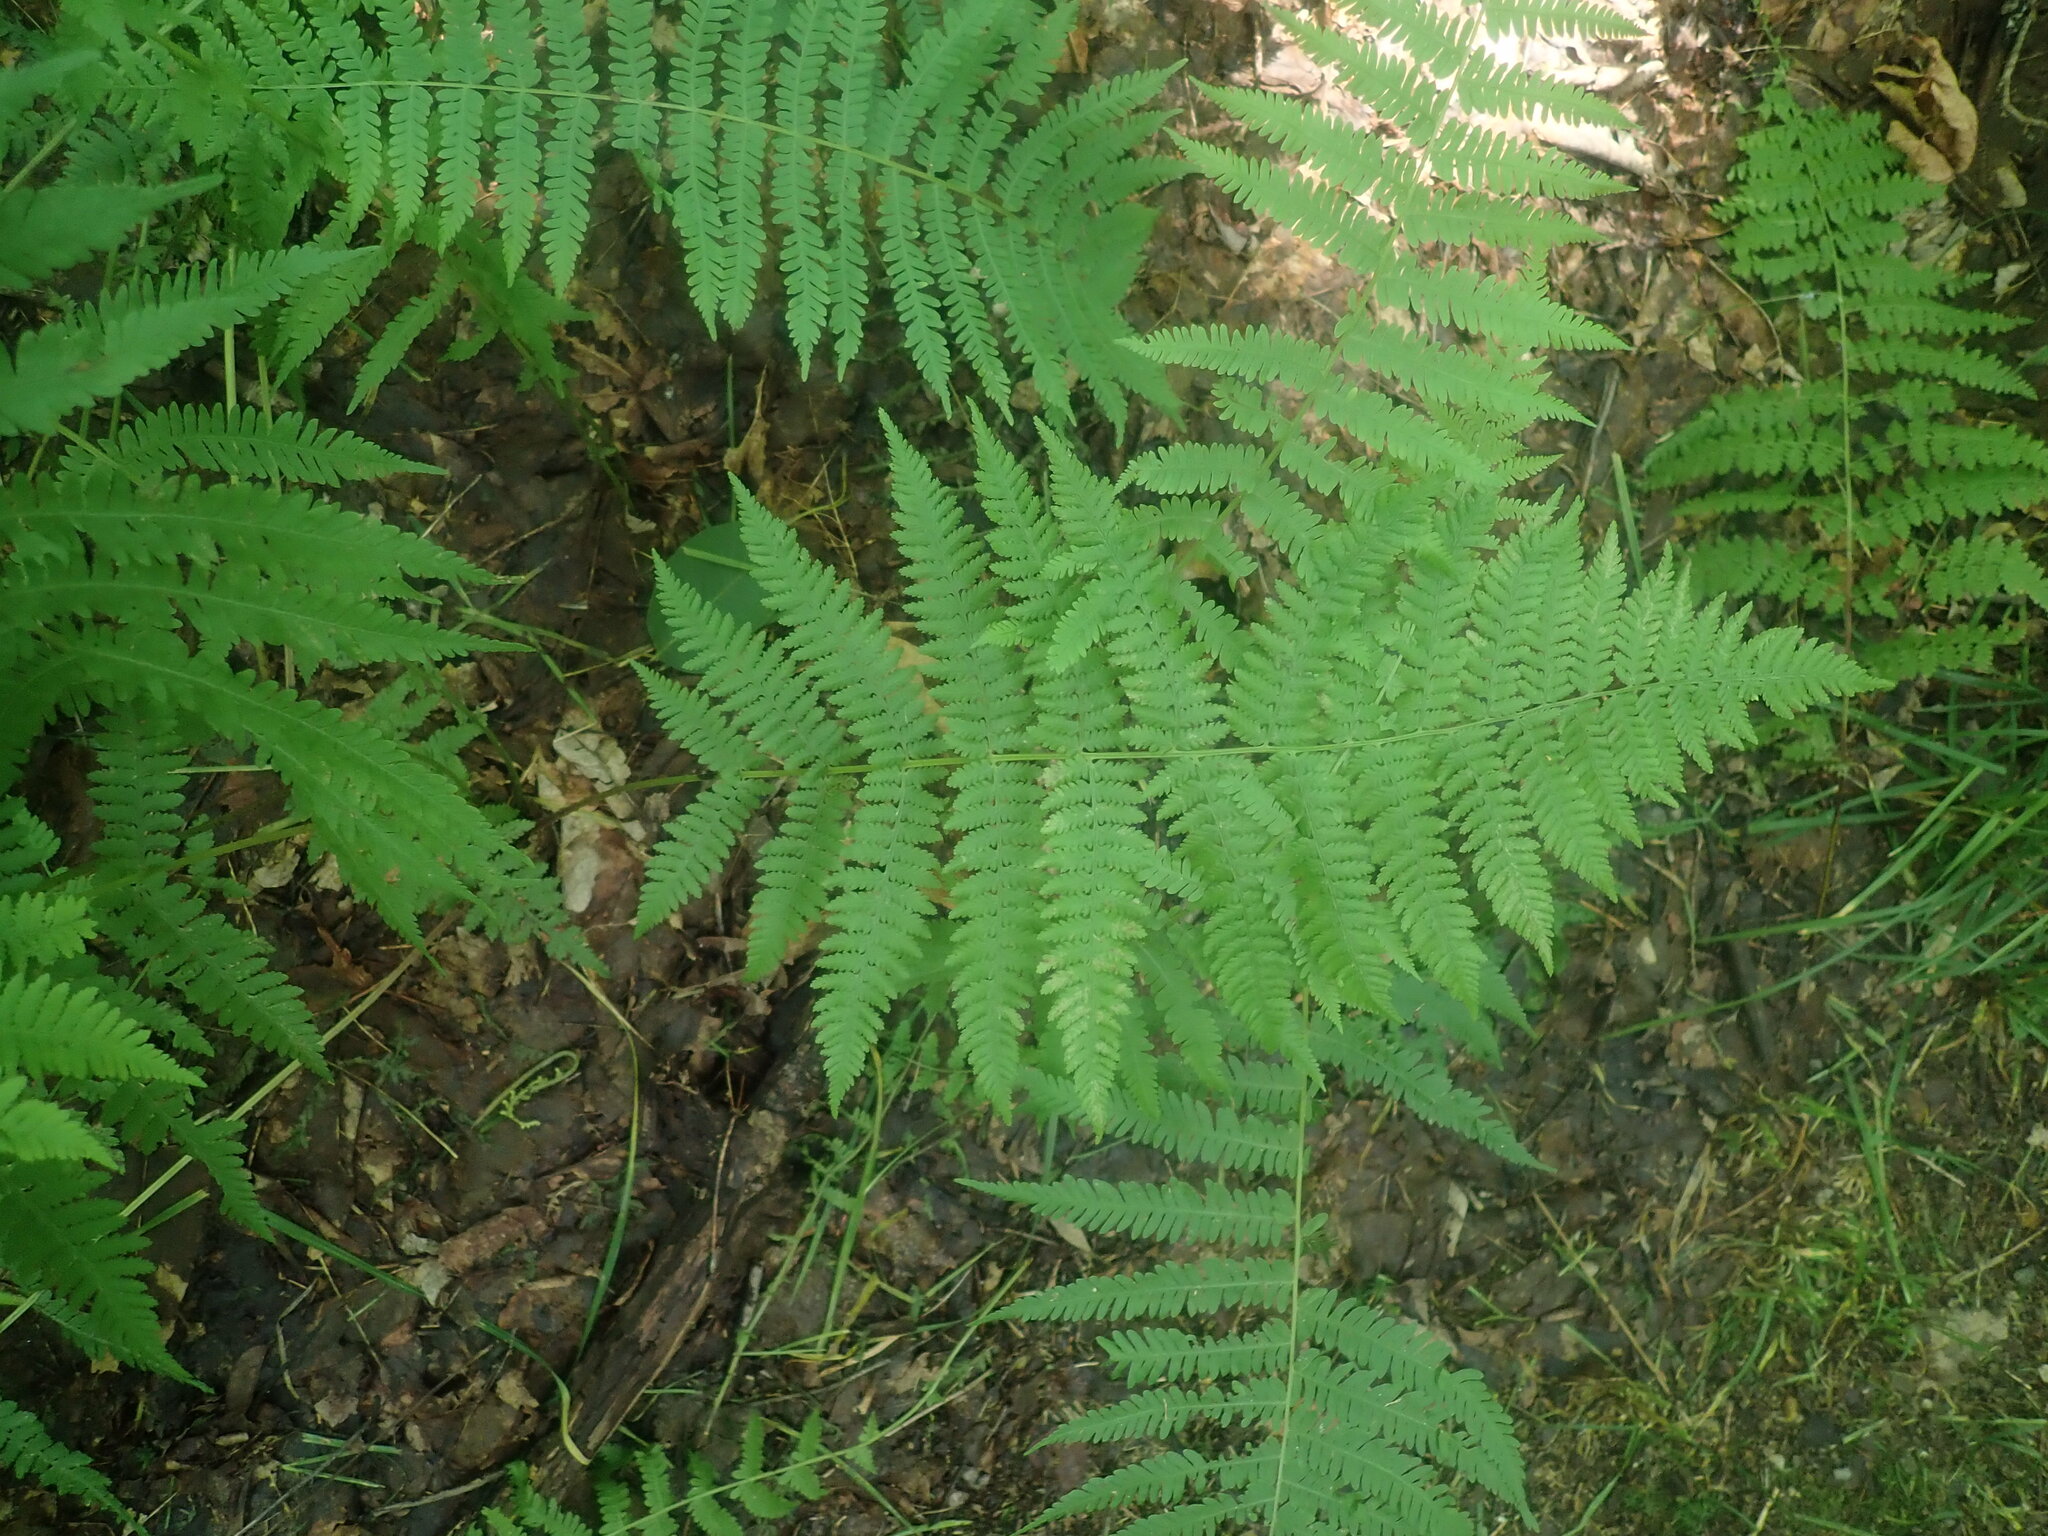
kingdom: Plantae
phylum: Tracheophyta
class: Polypodiopsida
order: Polypodiales
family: Dennstaedtiaceae
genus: Sitobolium
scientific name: Sitobolium punctilobum
